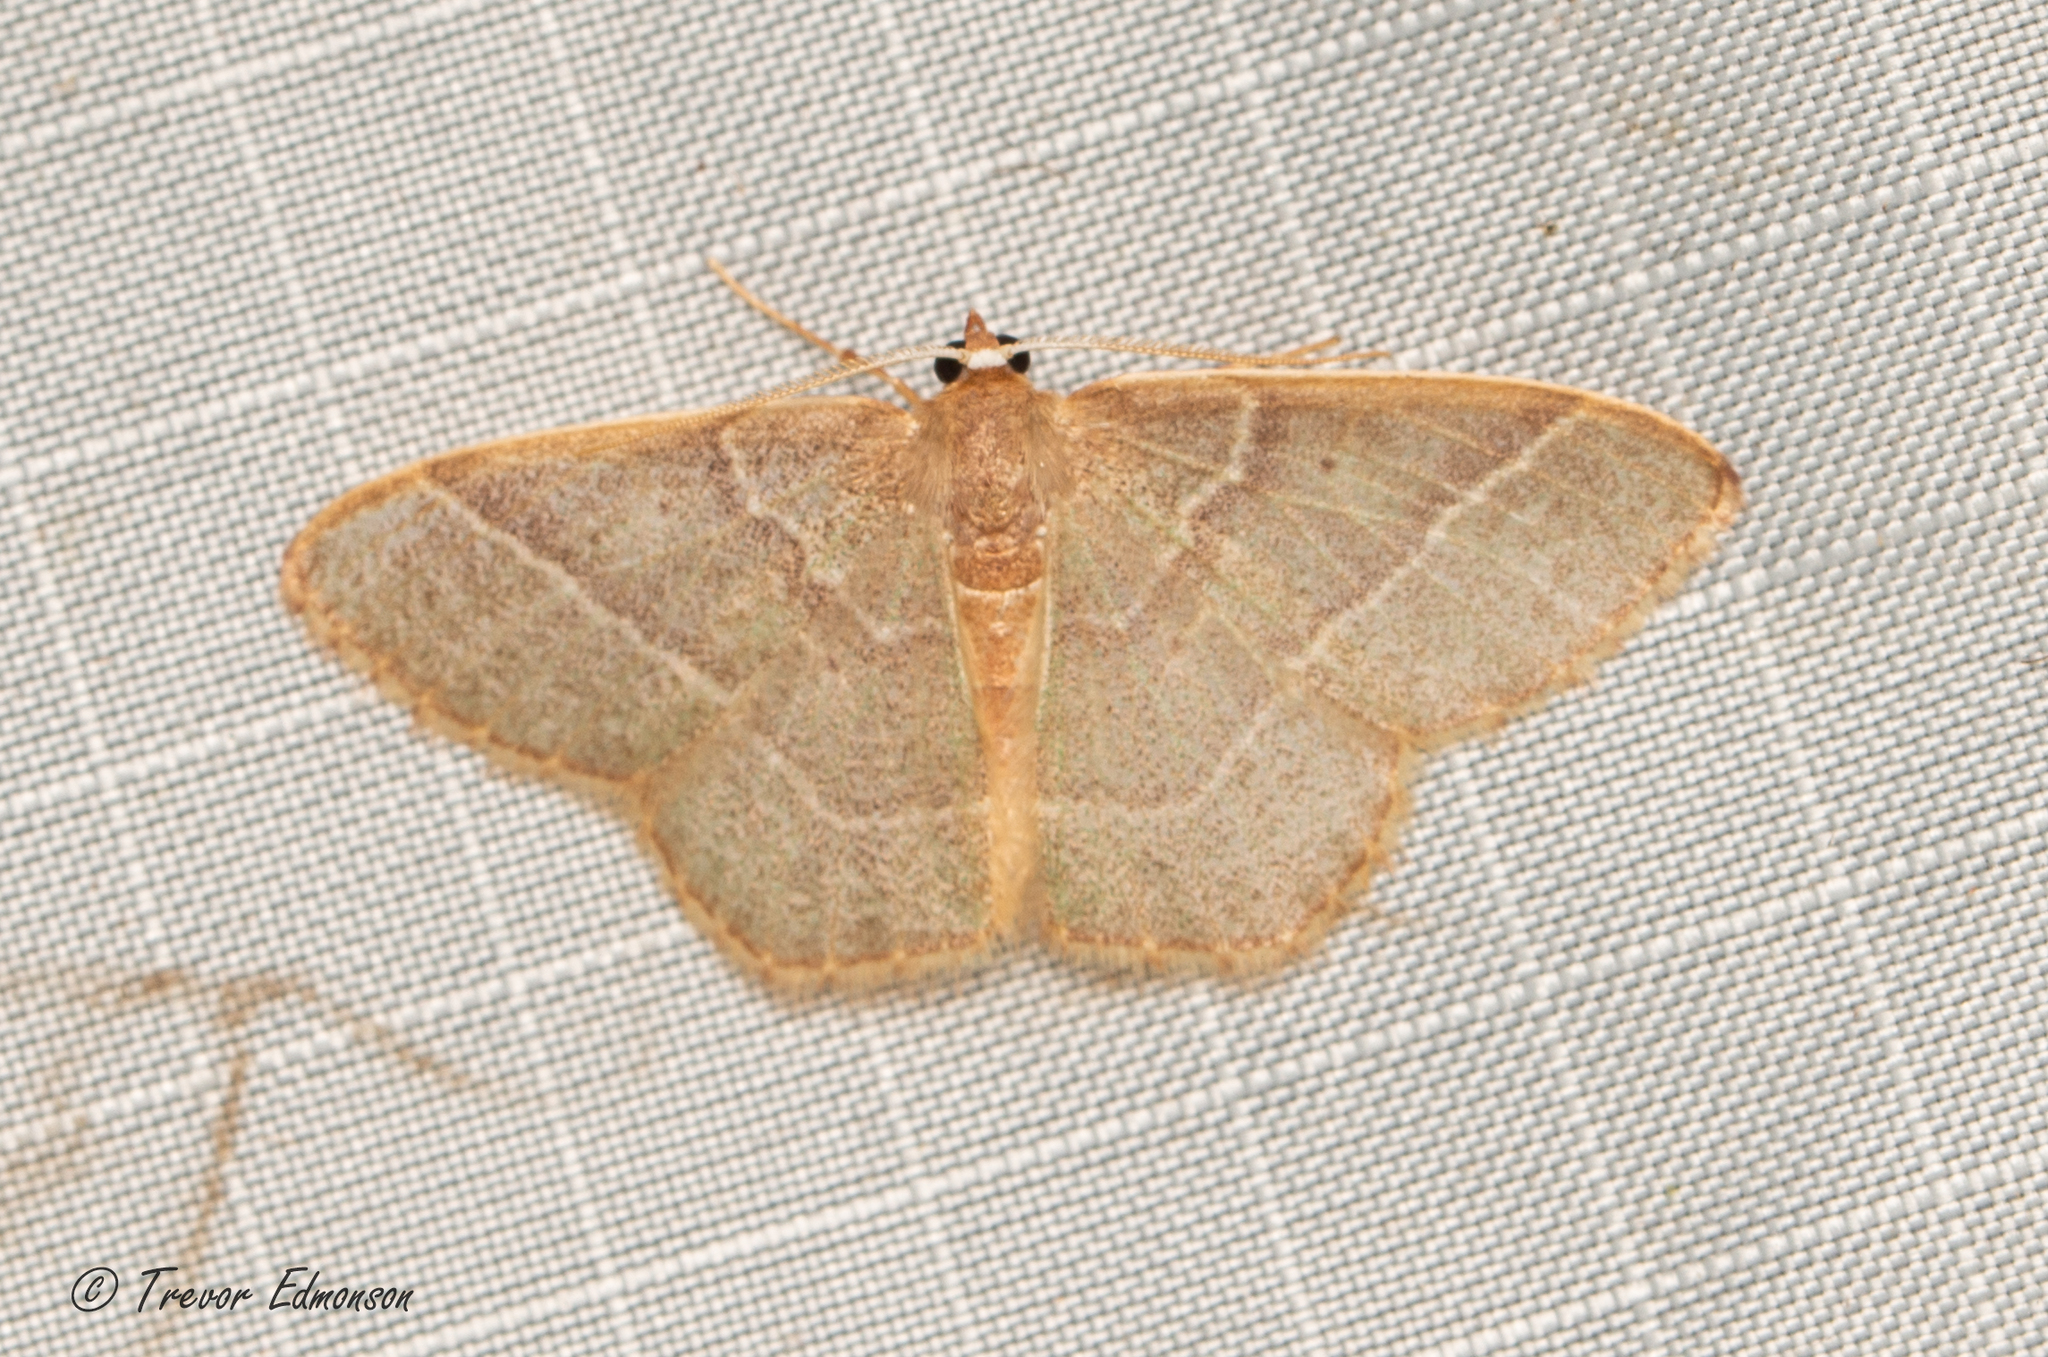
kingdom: Animalia
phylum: Arthropoda
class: Insecta
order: Lepidoptera
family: Geometridae
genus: Nemoria
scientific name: Nemoria bistriaria
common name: Red-fringed emerald
